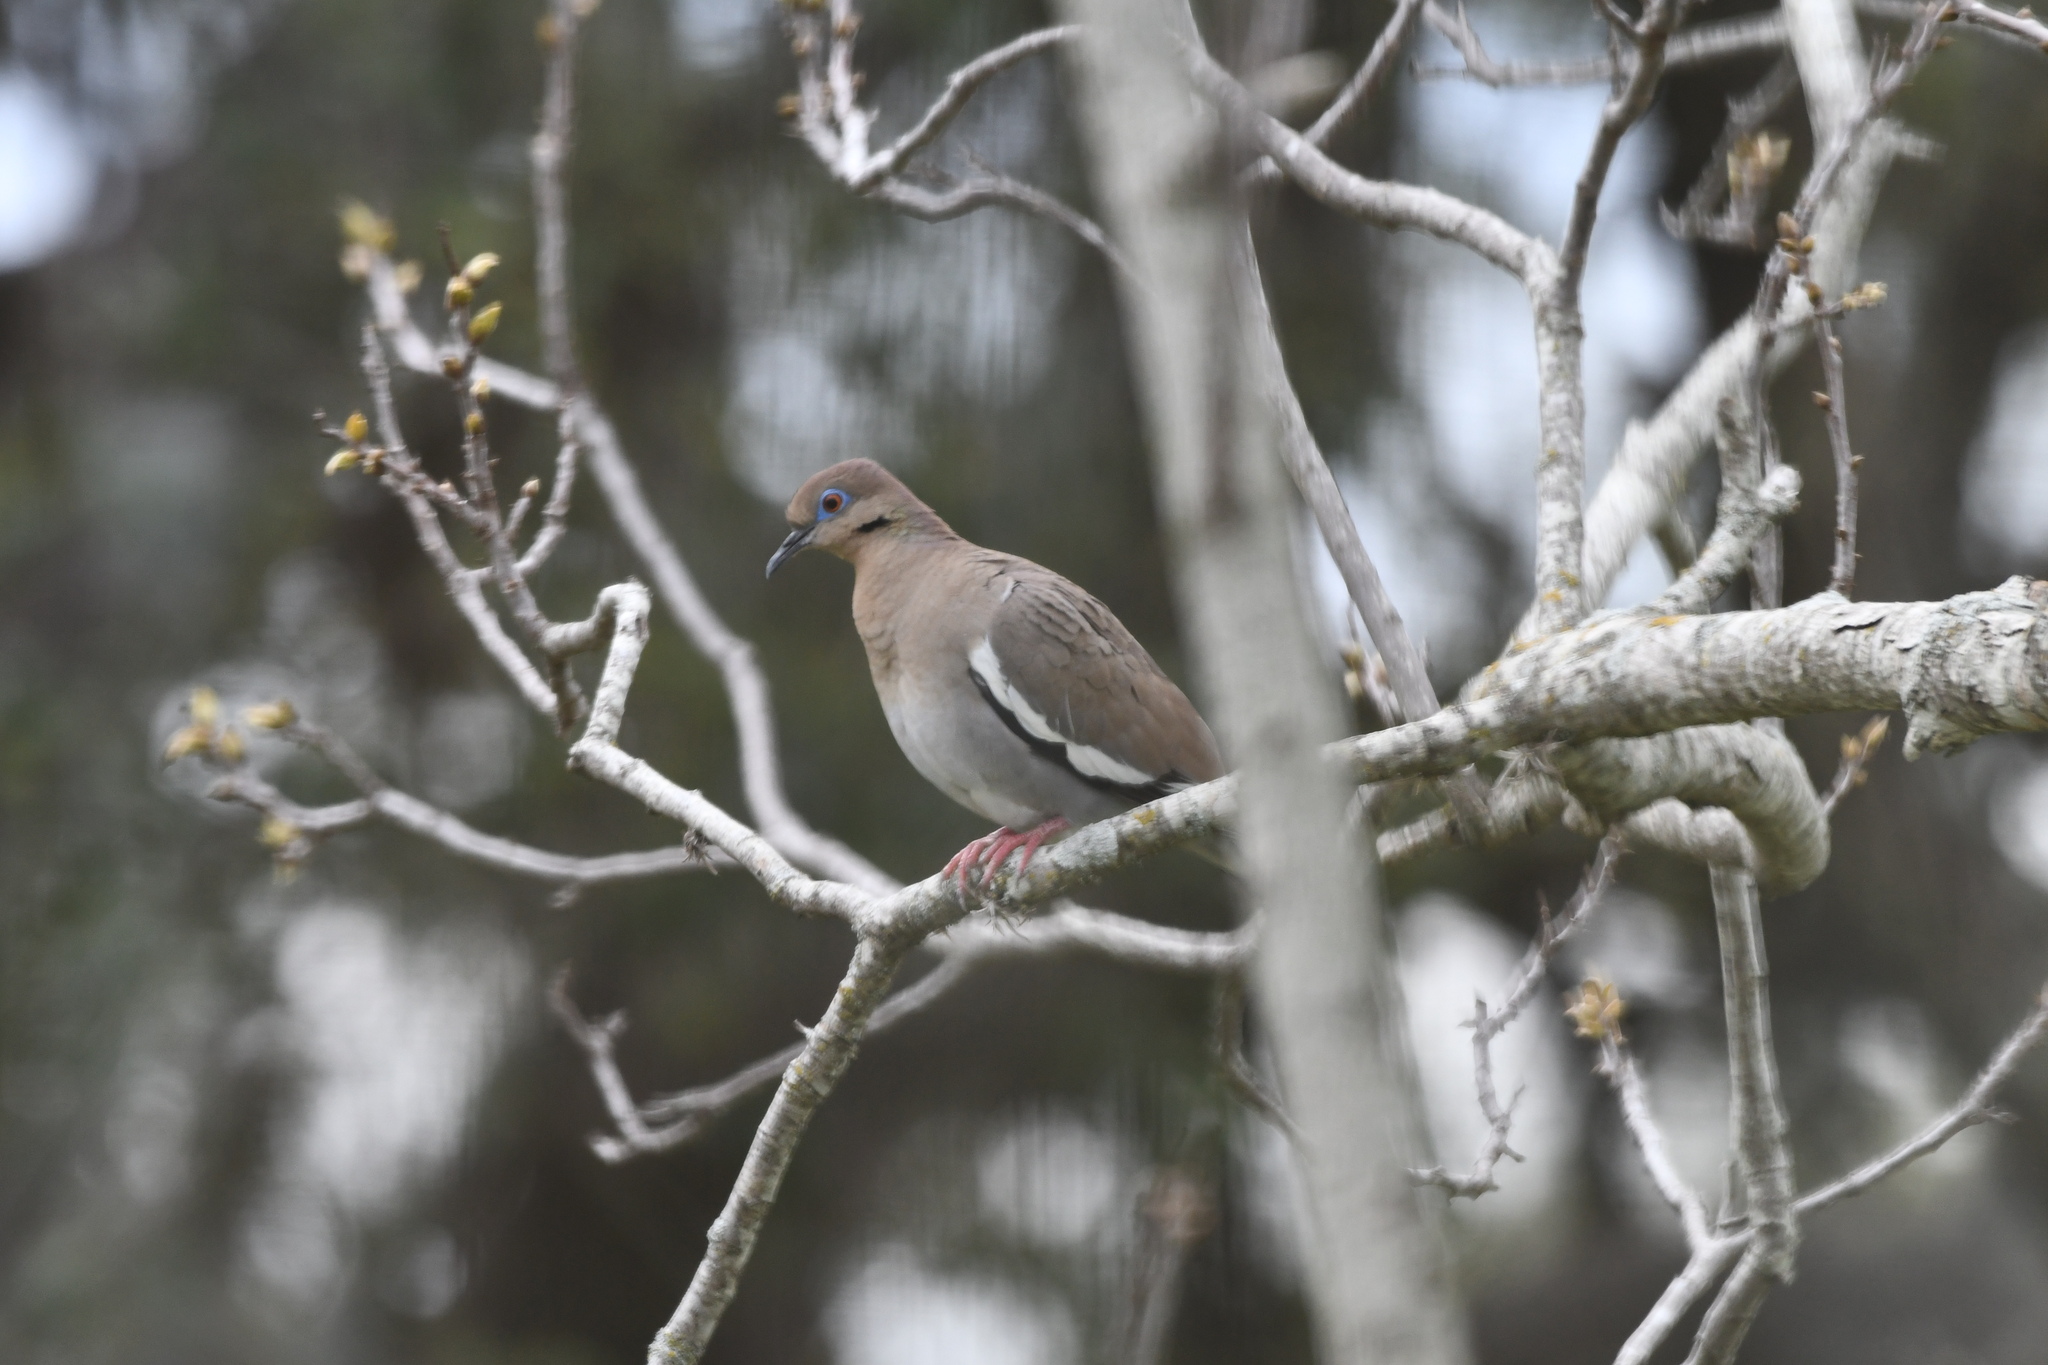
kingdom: Animalia
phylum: Chordata
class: Aves
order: Columbiformes
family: Columbidae
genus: Zenaida
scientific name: Zenaida asiatica
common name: White-winged dove
